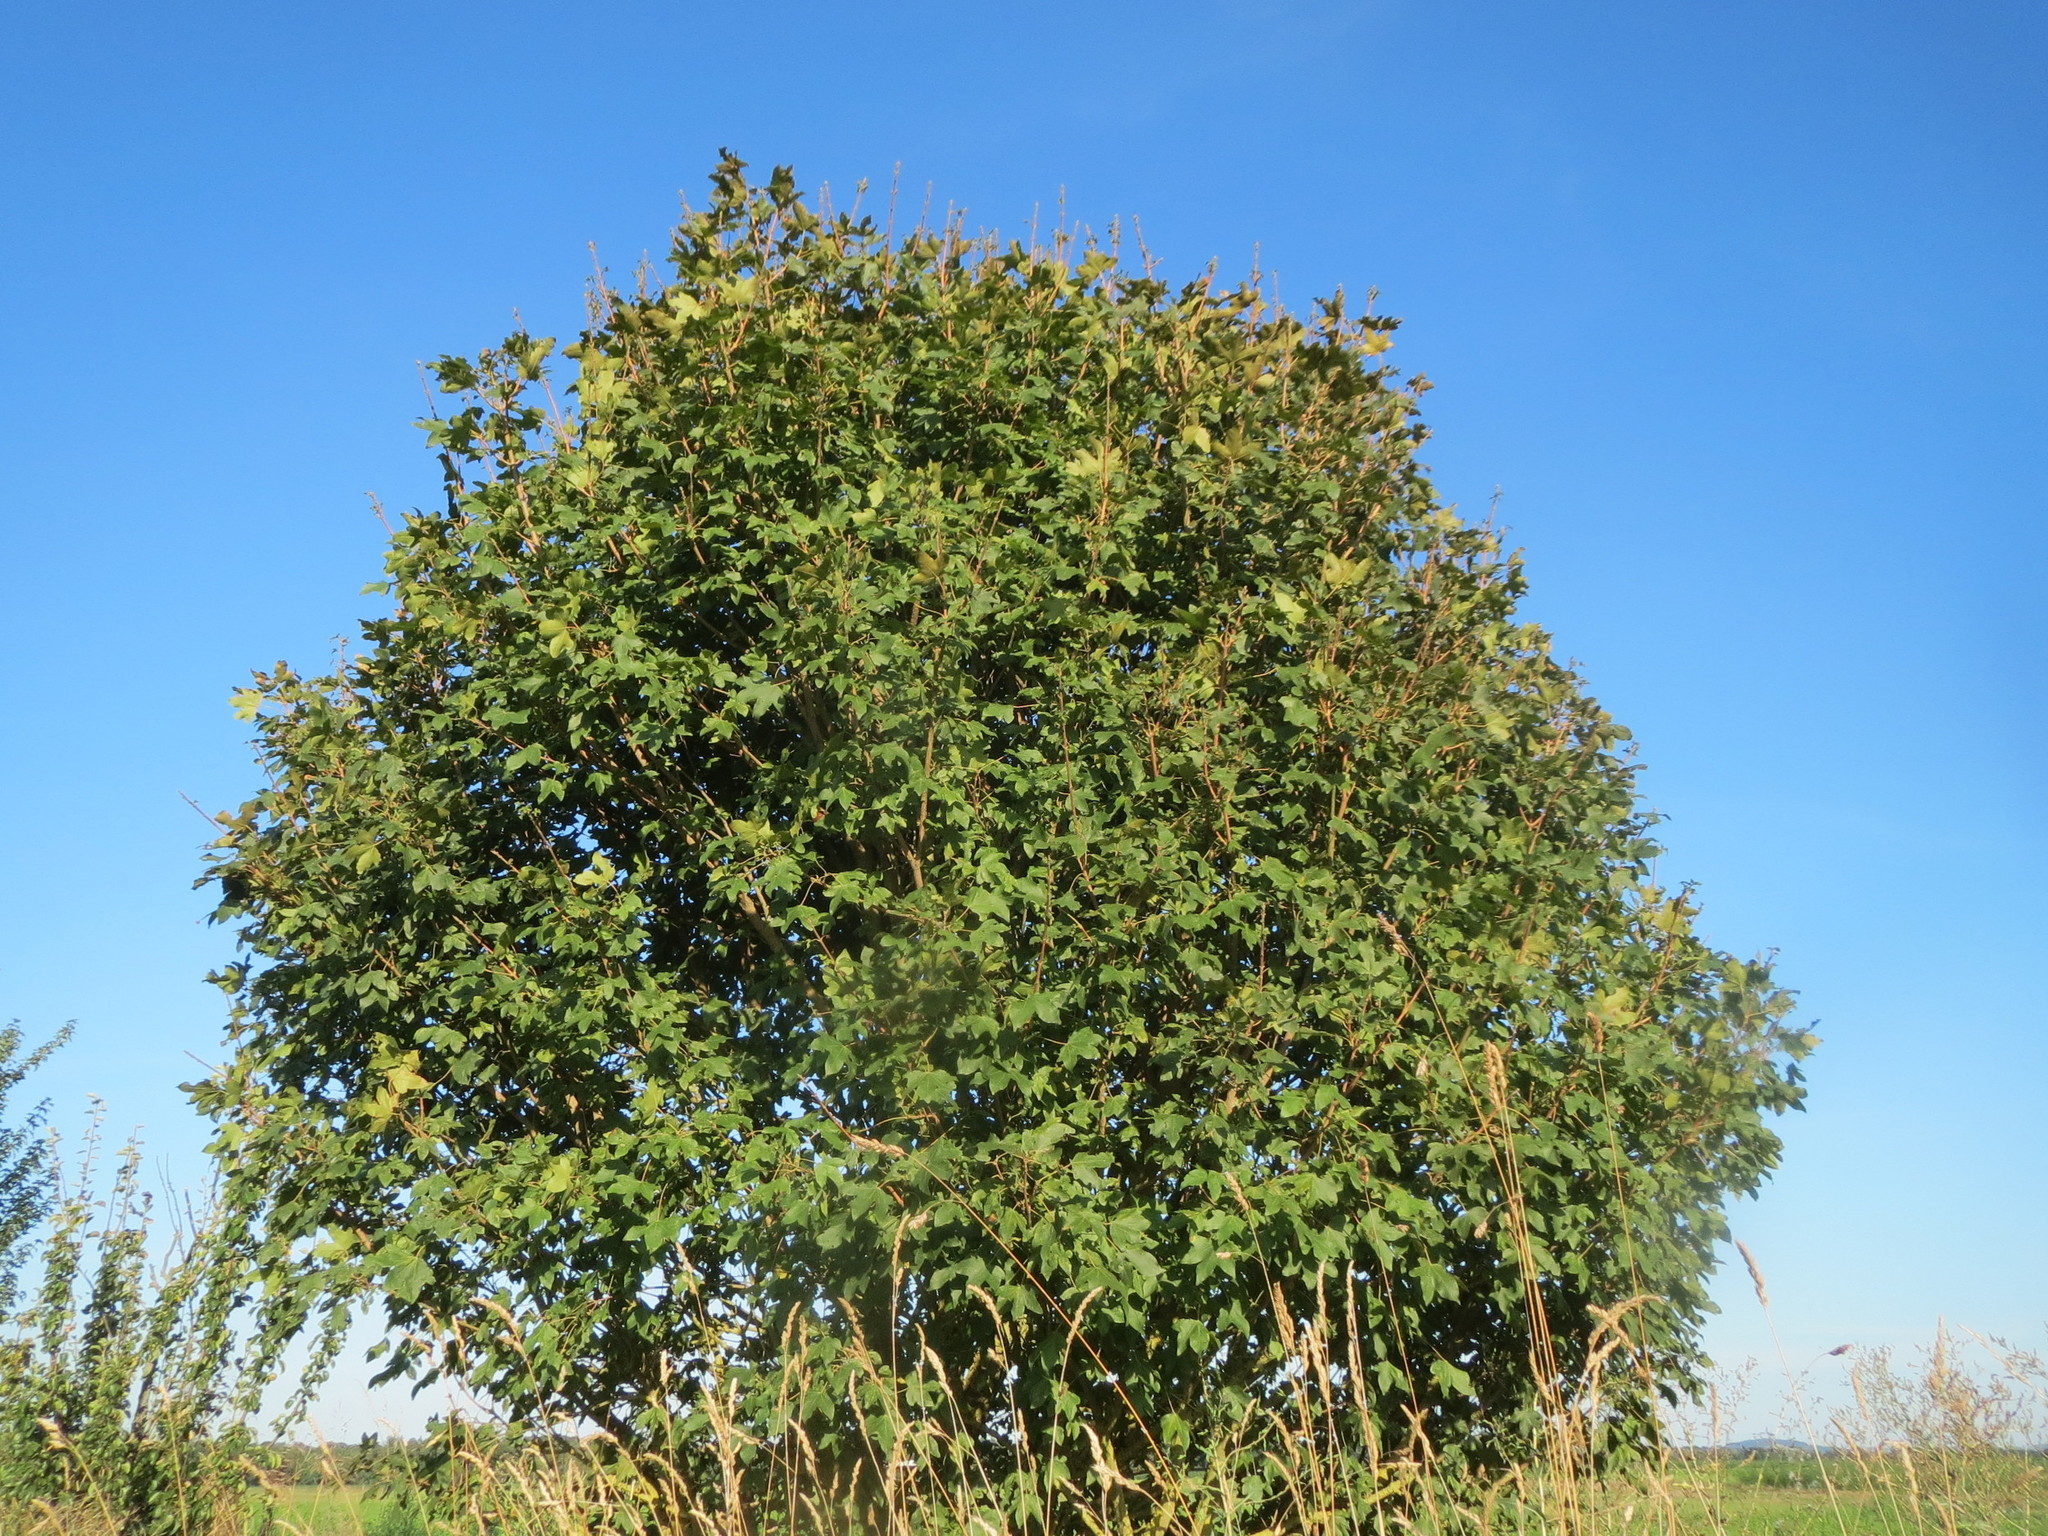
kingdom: Plantae
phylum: Tracheophyta
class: Magnoliopsida
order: Sapindales
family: Sapindaceae
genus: Acer
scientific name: Acer campestre
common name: Field maple
